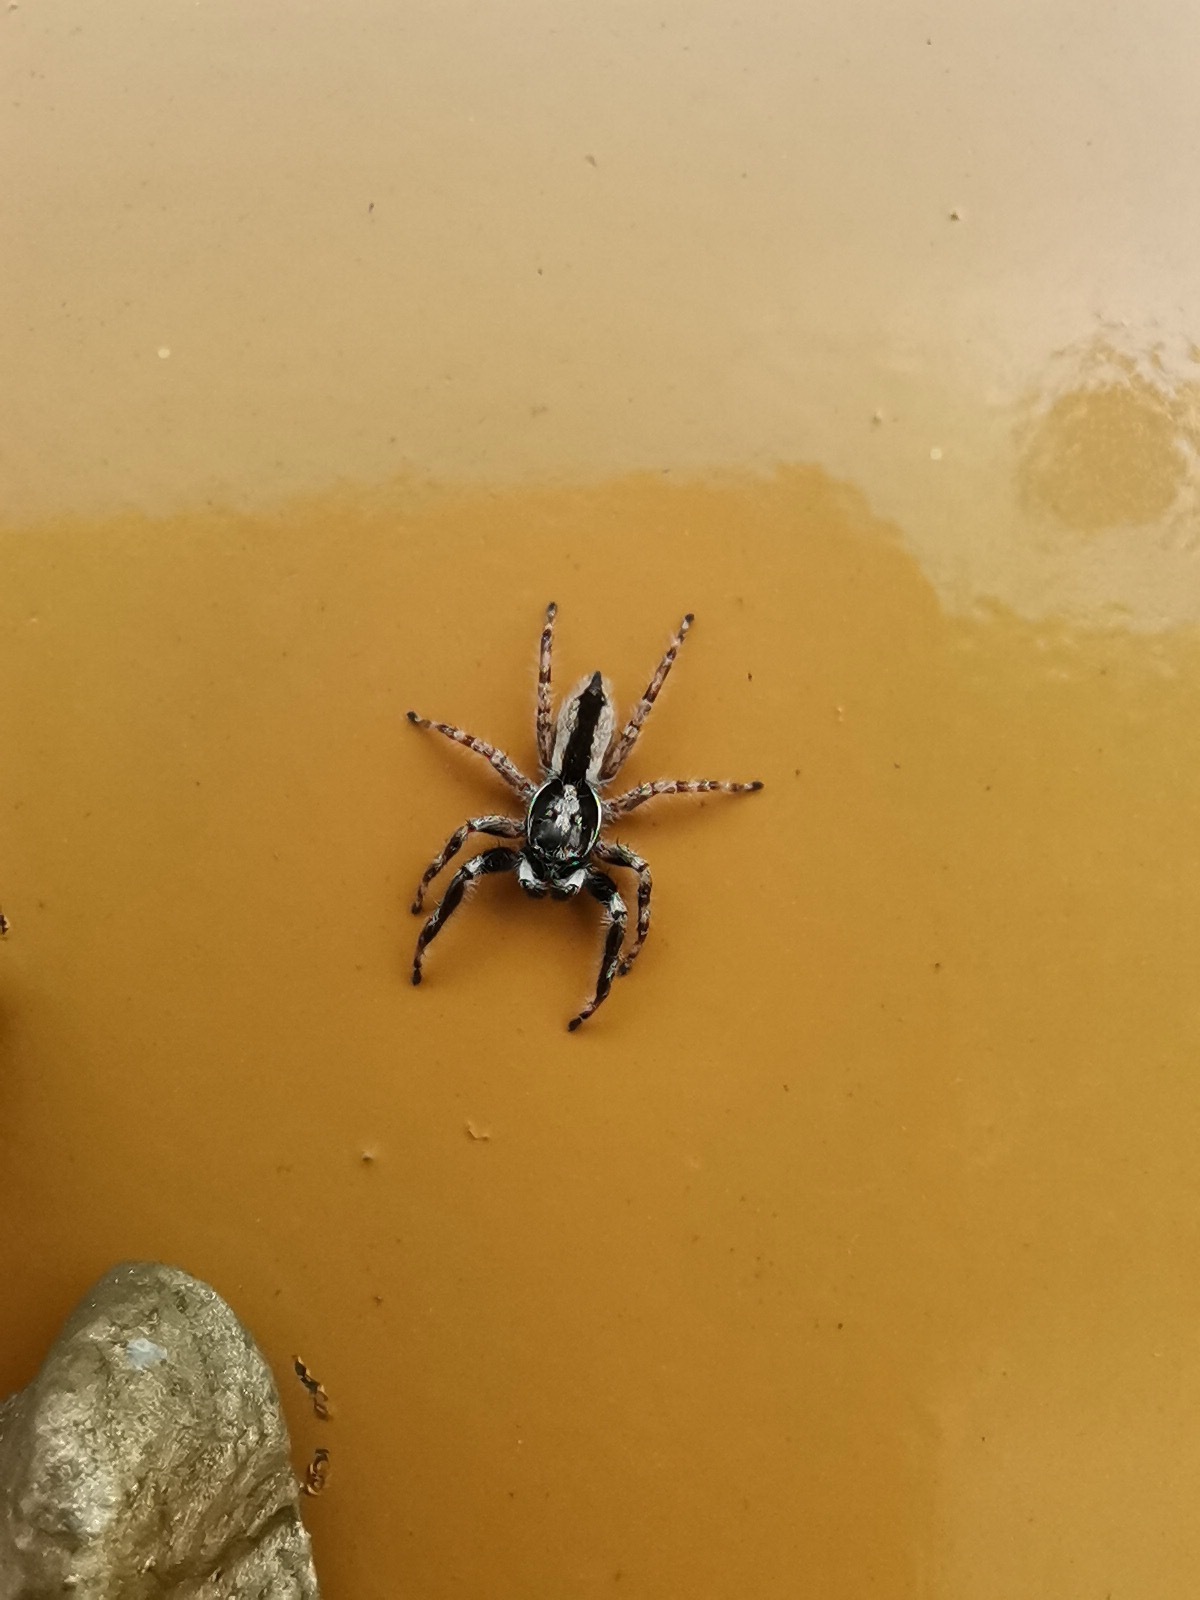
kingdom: Animalia
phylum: Arthropoda
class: Arachnida
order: Araneae
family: Salticidae
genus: Menemerus
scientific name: Menemerus bivittatus
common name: Gray wall jumper
